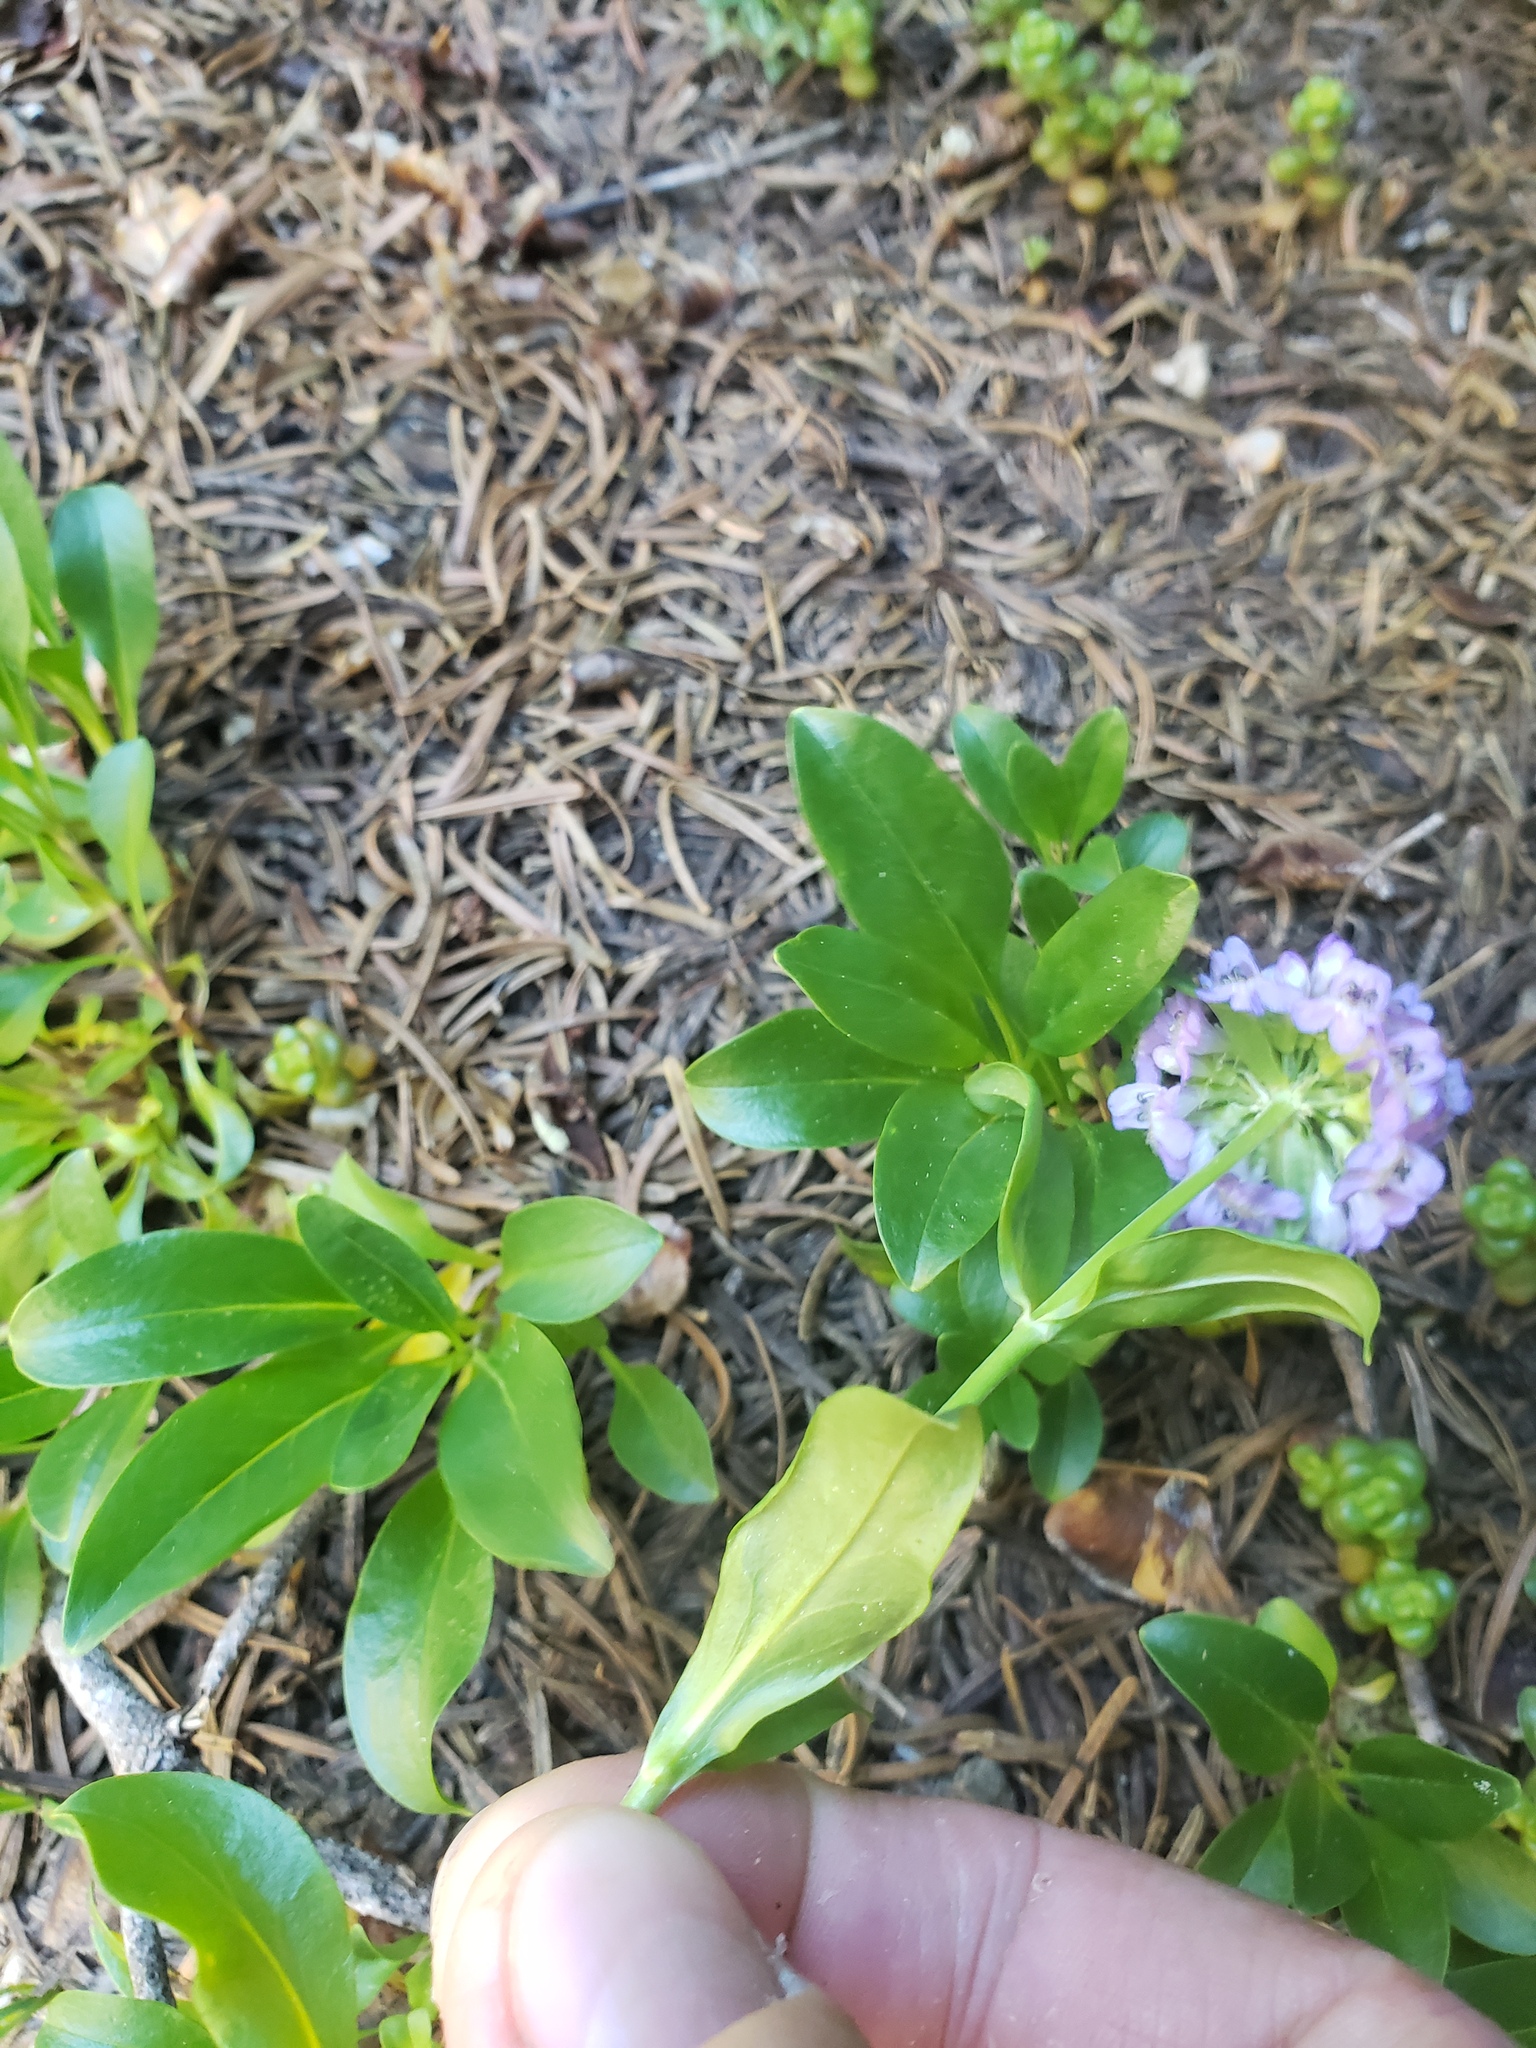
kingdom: Plantae
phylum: Tracheophyta
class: Magnoliopsida
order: Lamiales
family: Plantaginaceae
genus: Penstemon
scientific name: Penstemon procerus
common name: Small-flower penstemon
